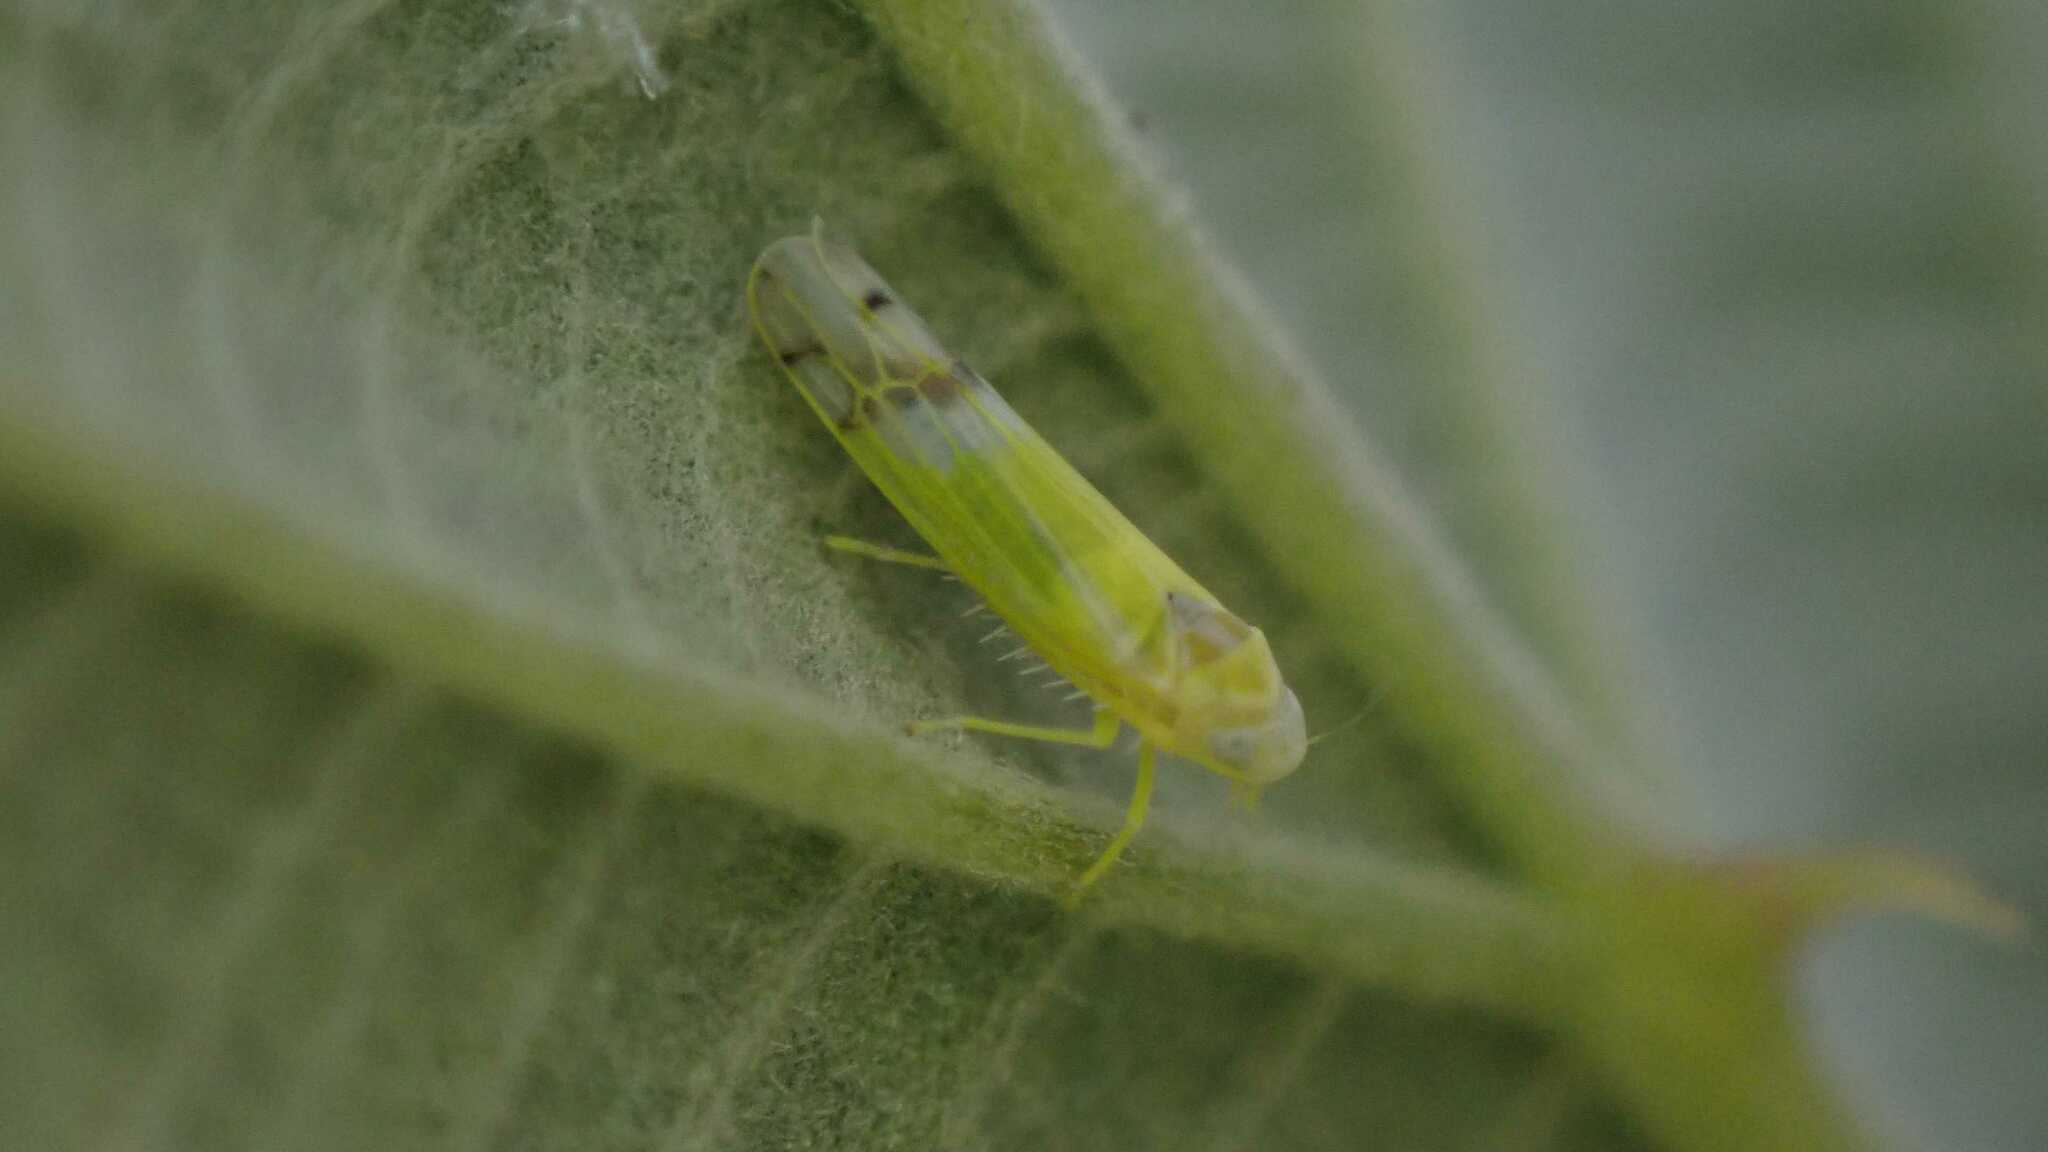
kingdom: Animalia
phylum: Arthropoda
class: Insecta
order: Hemiptera
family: Cicadellidae
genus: Ribautiana
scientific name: Ribautiana tenerrima
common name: Bramble leafhopper
